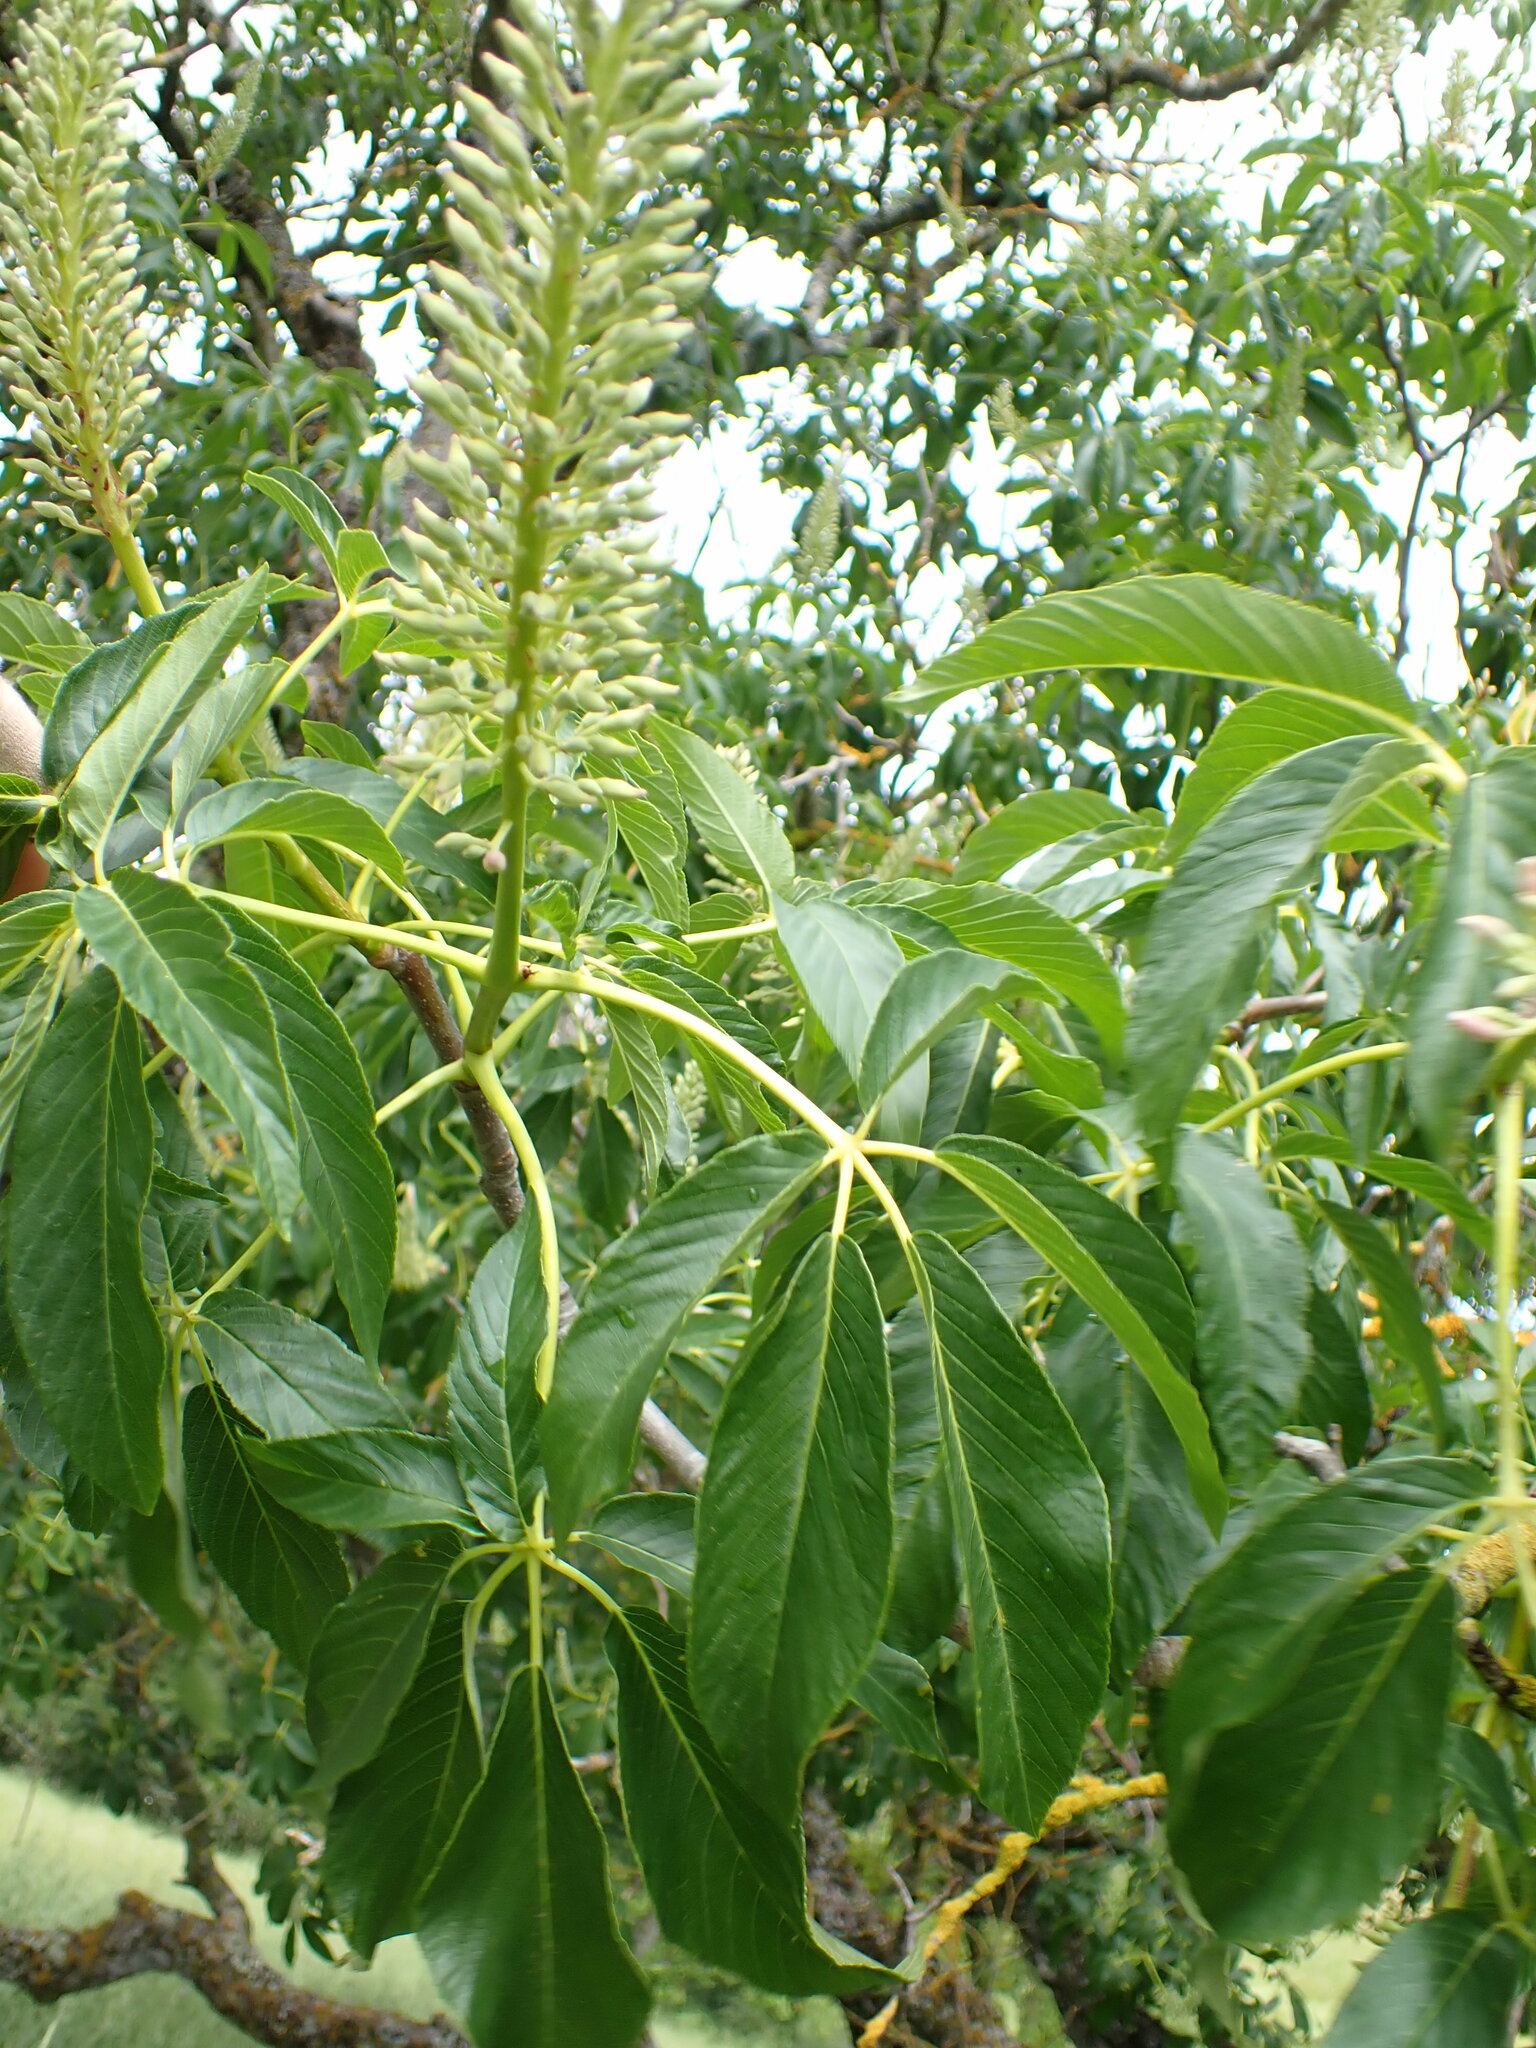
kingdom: Plantae
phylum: Tracheophyta
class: Magnoliopsida
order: Sapindales
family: Sapindaceae
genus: Aesculus
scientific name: Aesculus californica
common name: California buckeye
